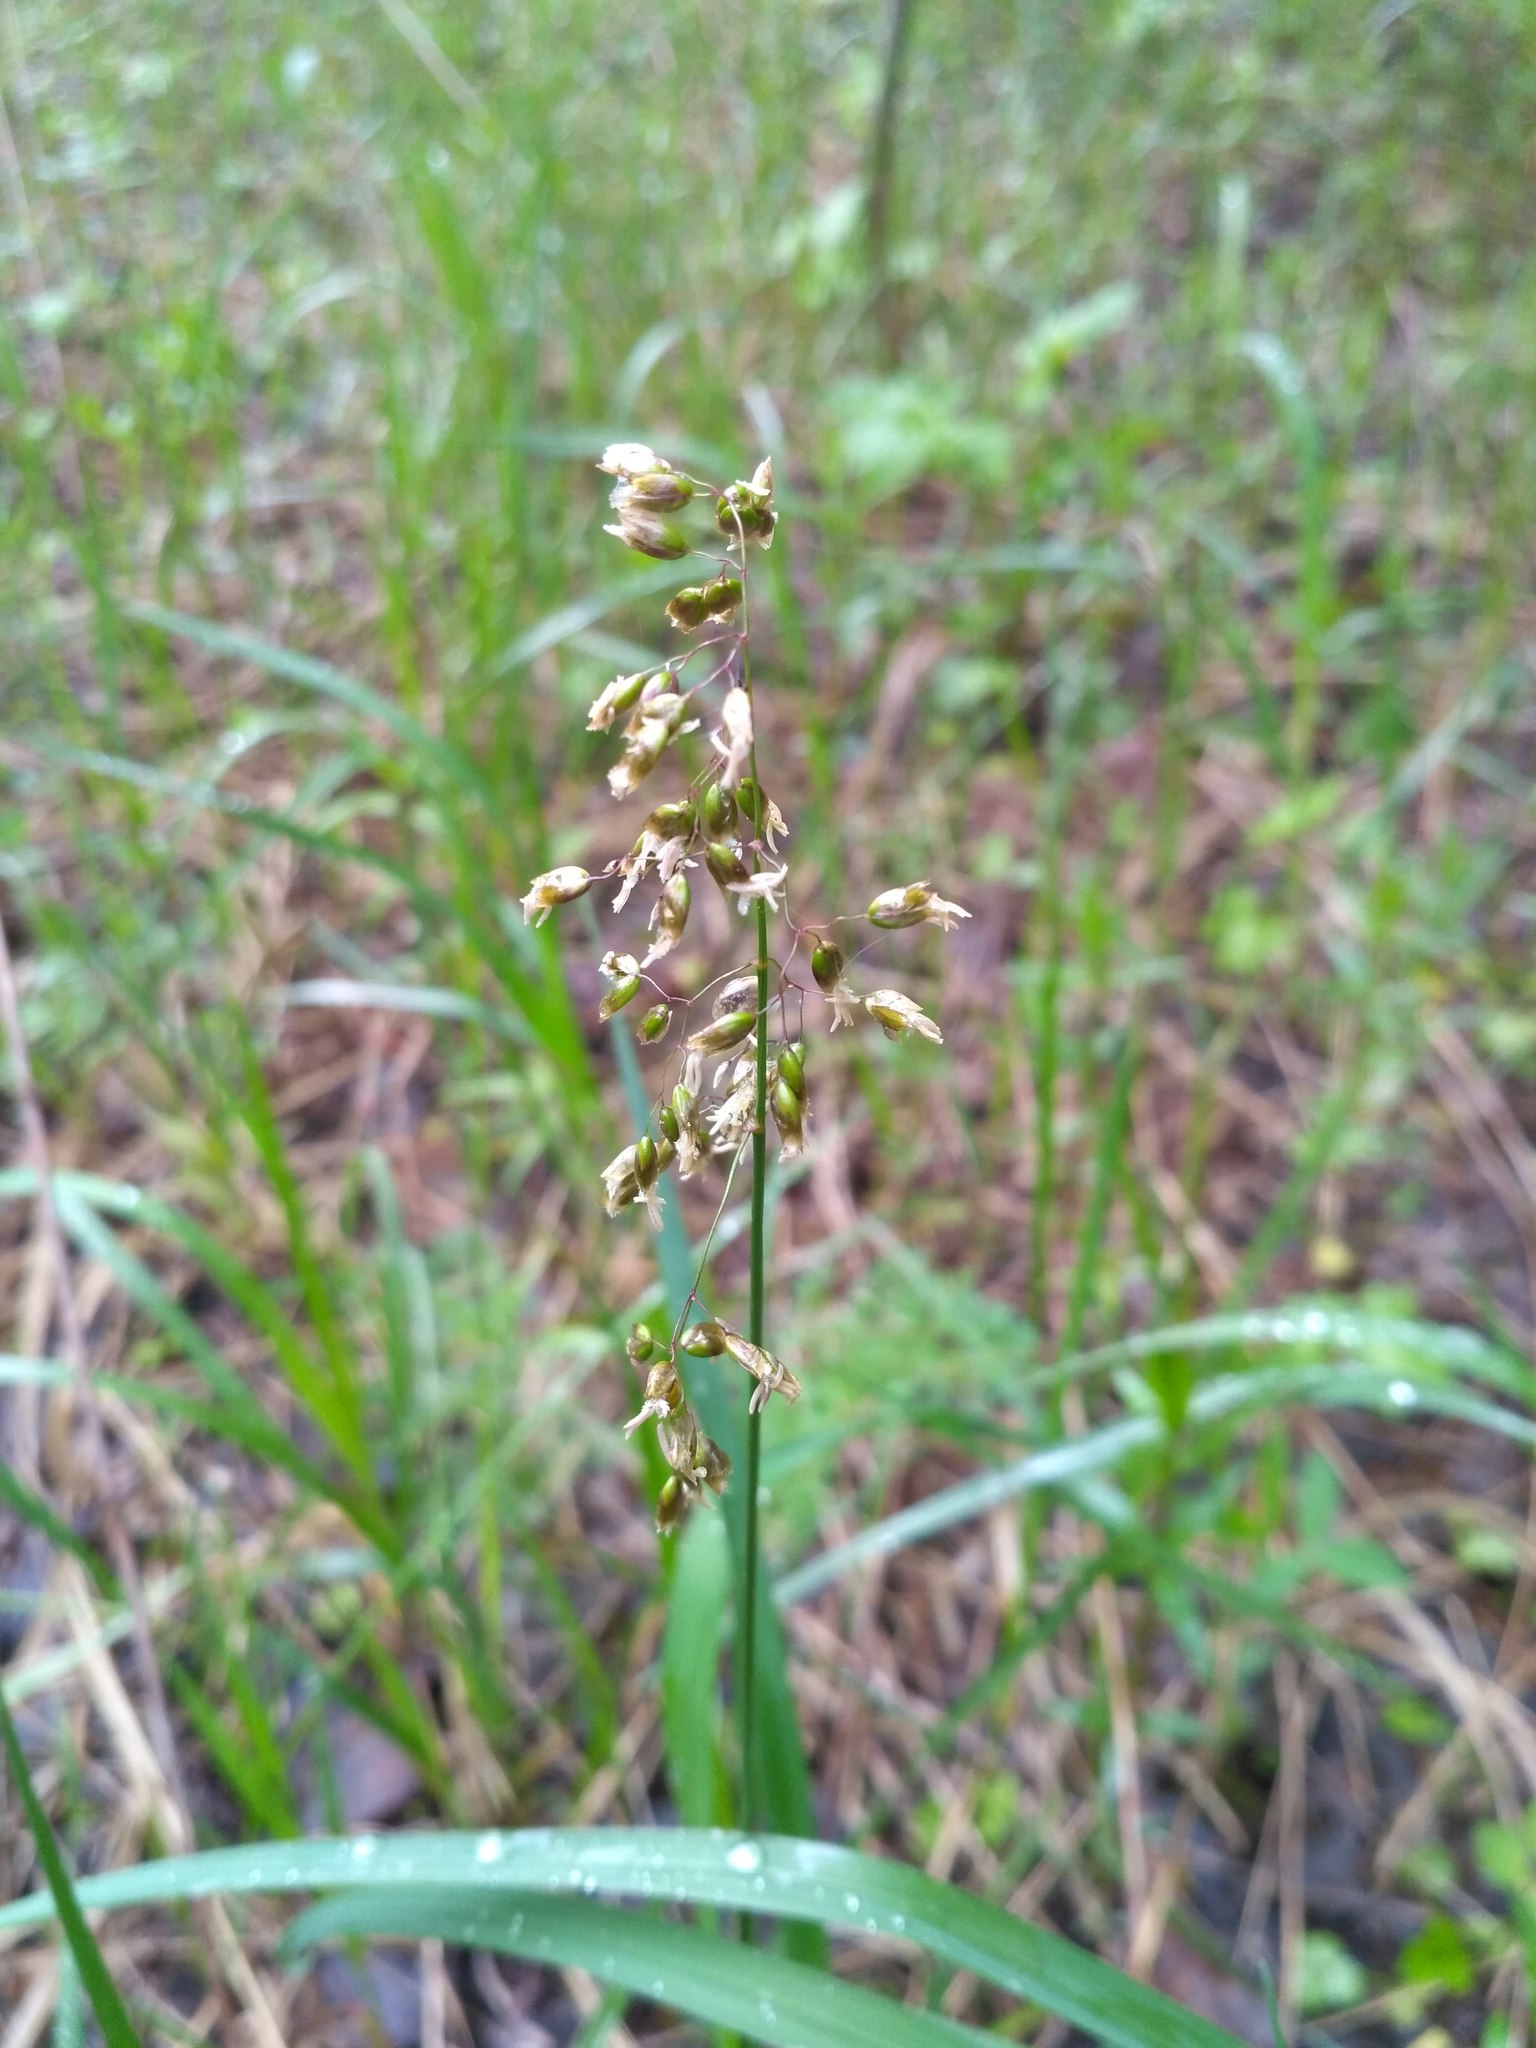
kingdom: Plantae
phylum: Tracheophyta
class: Liliopsida
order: Poales
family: Poaceae
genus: Anthoxanthum
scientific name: Anthoxanthum nitens
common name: Holy grass
